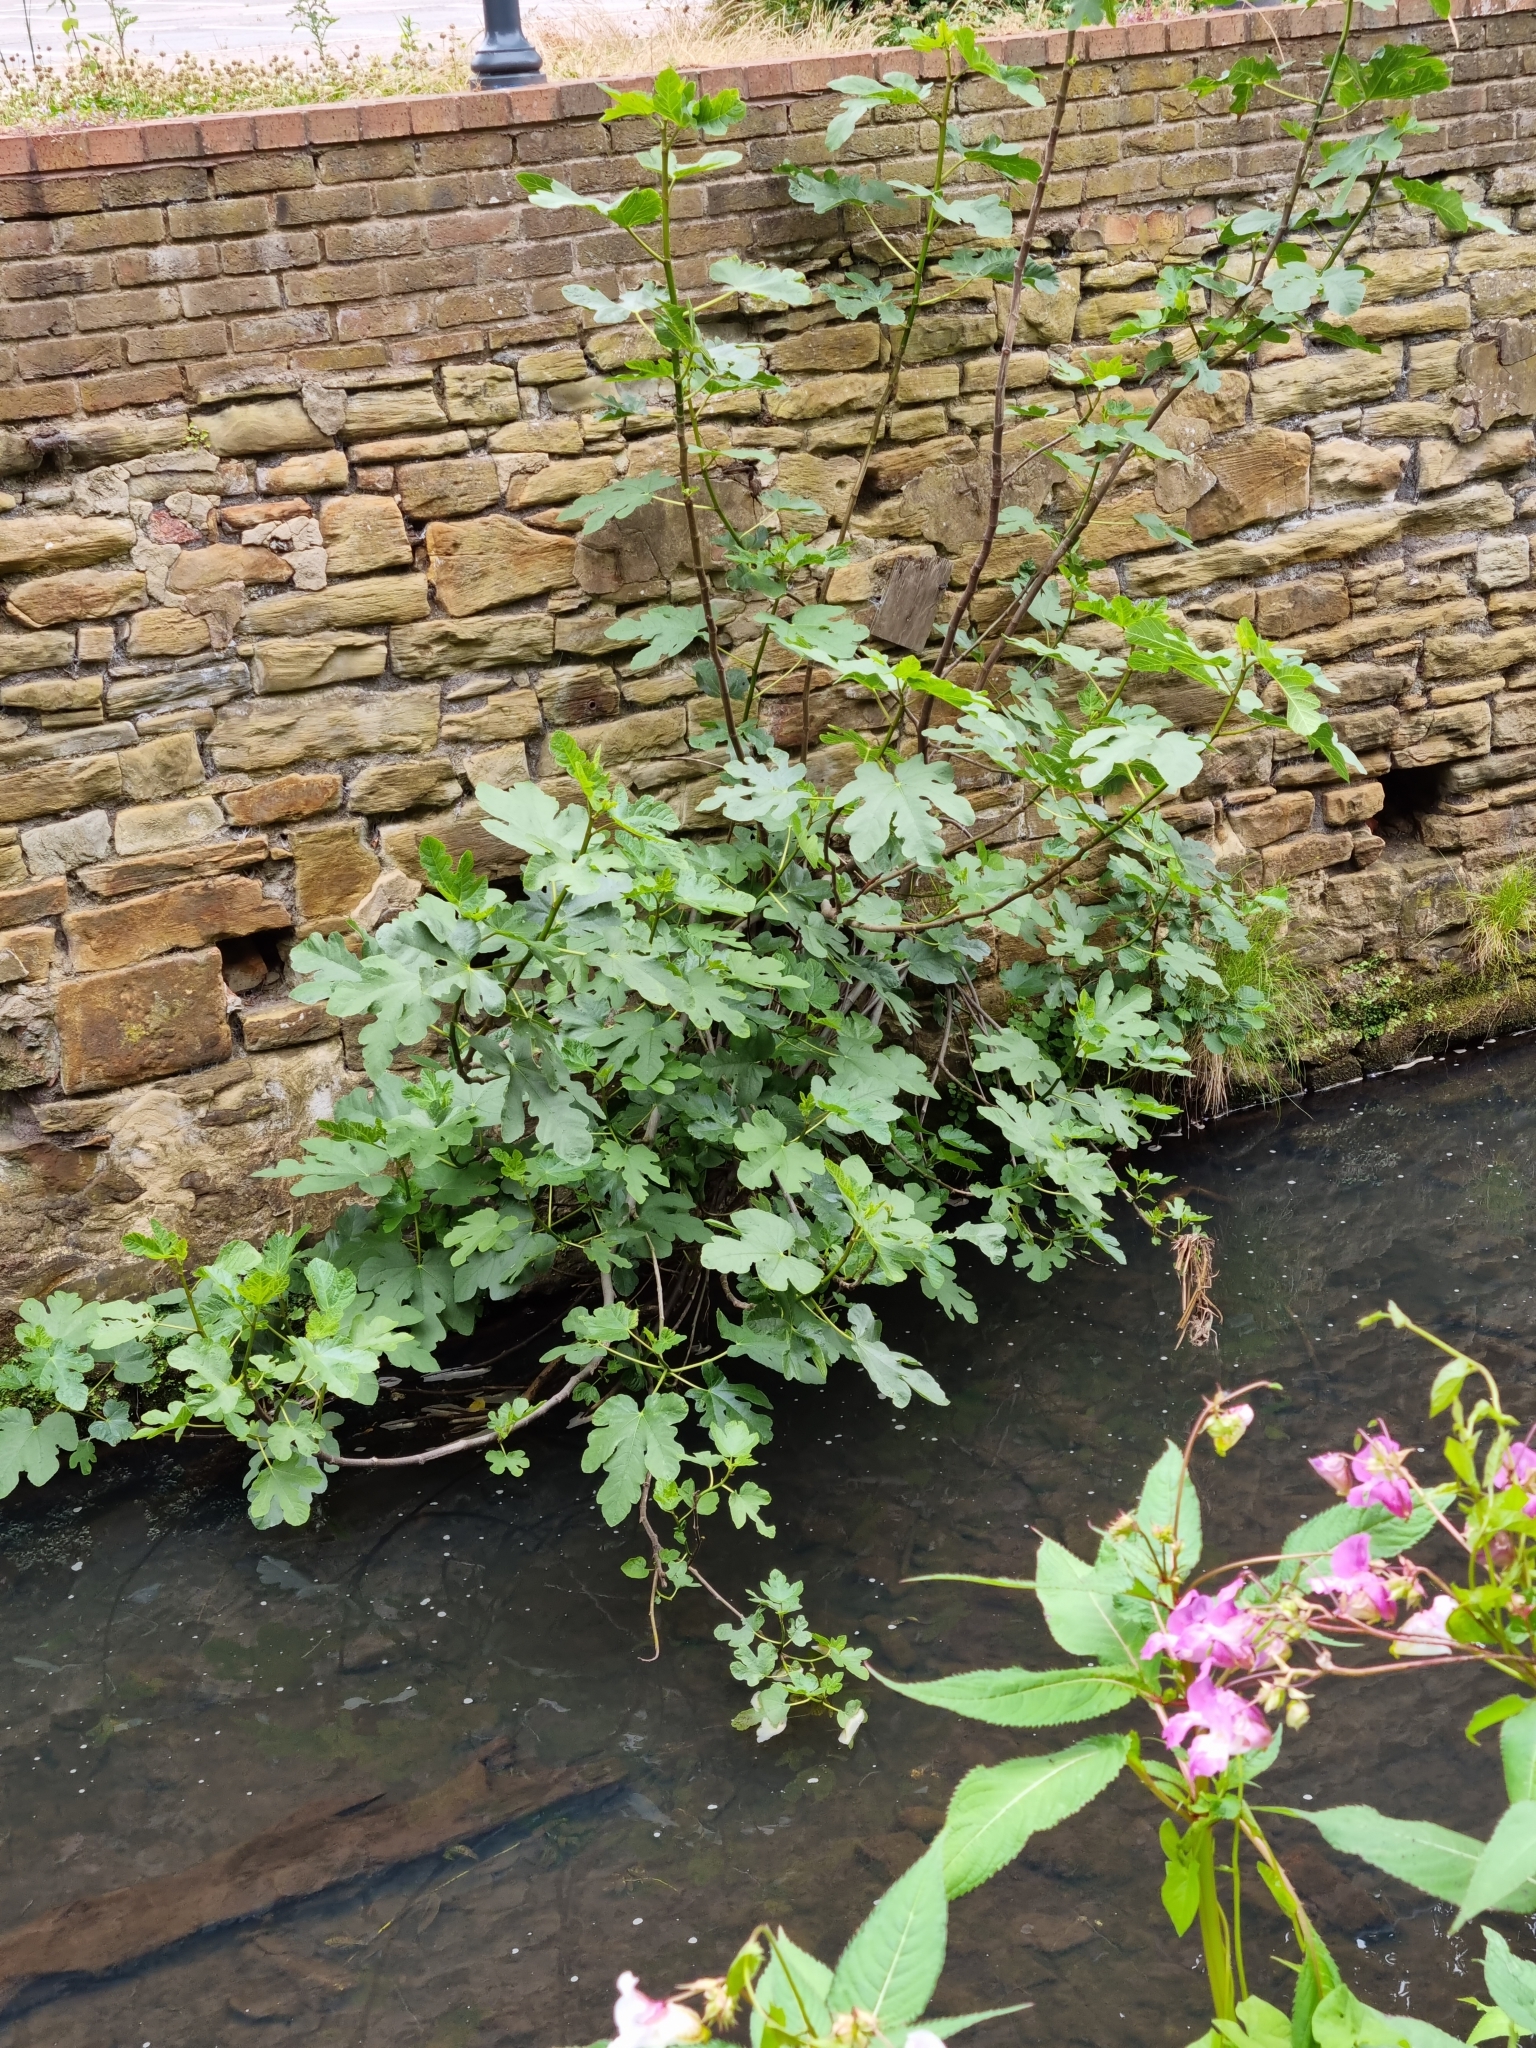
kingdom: Plantae
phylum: Tracheophyta
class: Magnoliopsida
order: Rosales
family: Moraceae
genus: Ficus
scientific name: Ficus carica
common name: Fig
